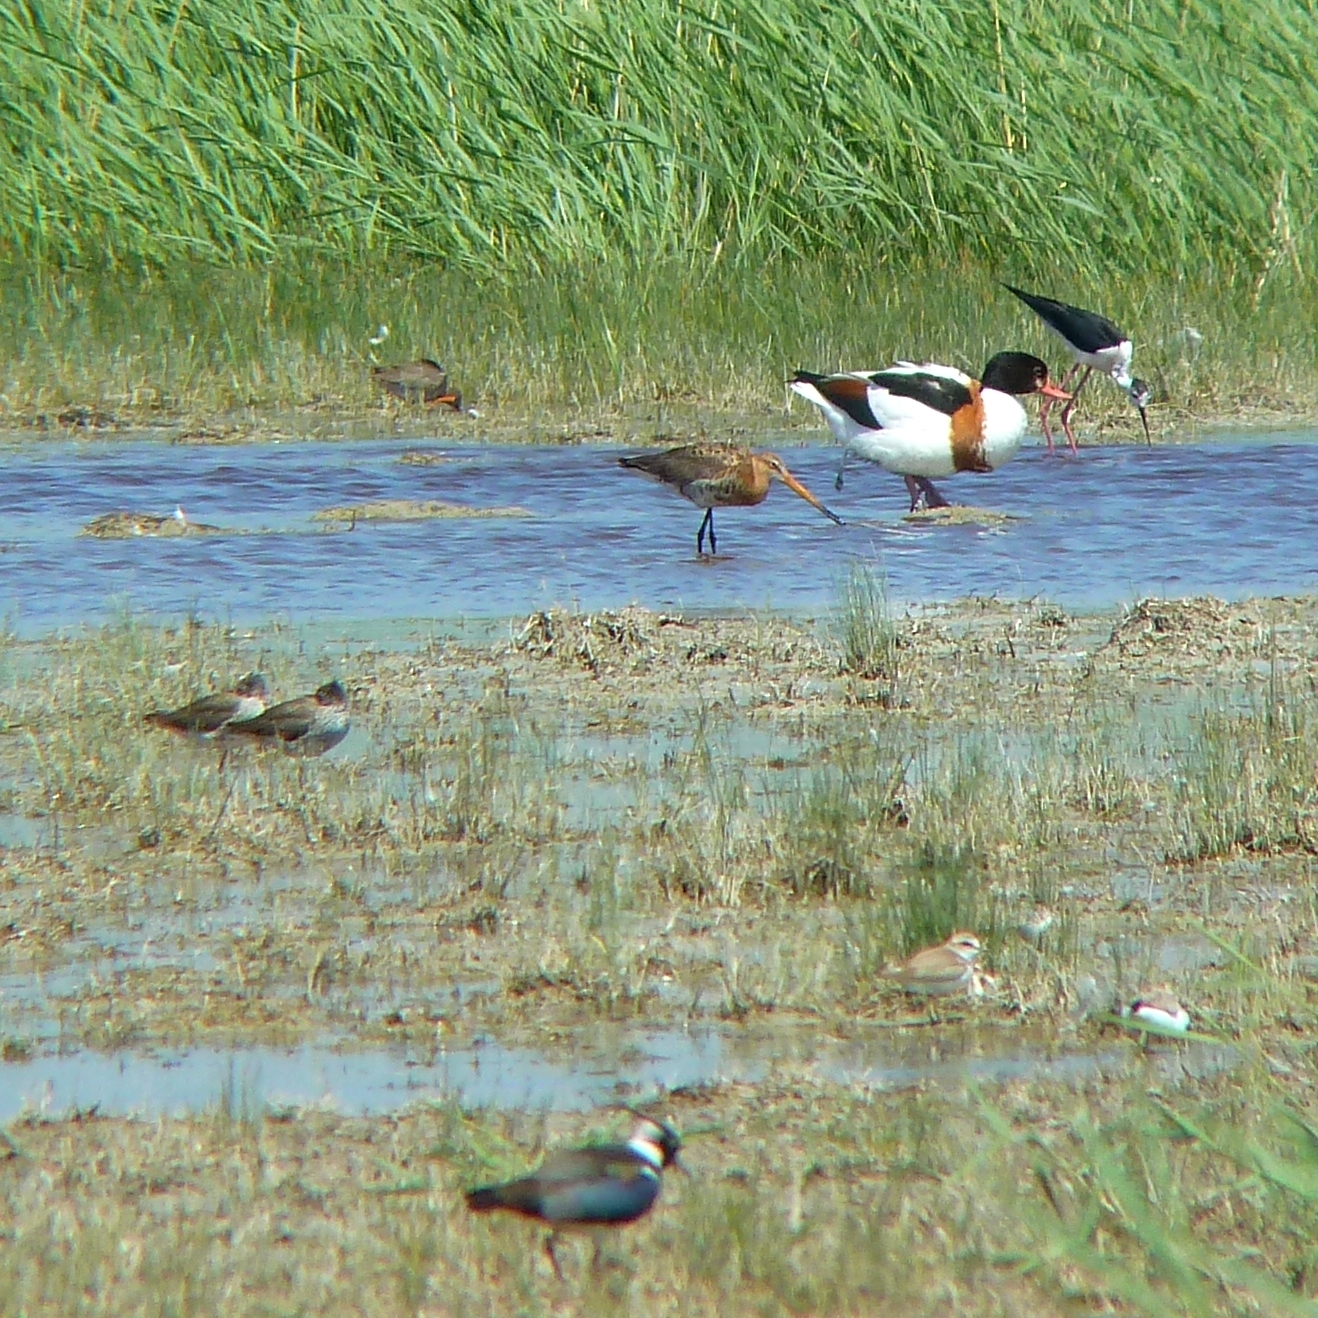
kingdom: Animalia
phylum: Chordata
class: Aves
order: Charadriiformes
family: Scolopacidae
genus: Limosa
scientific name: Limosa limosa
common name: Black-tailed godwit
